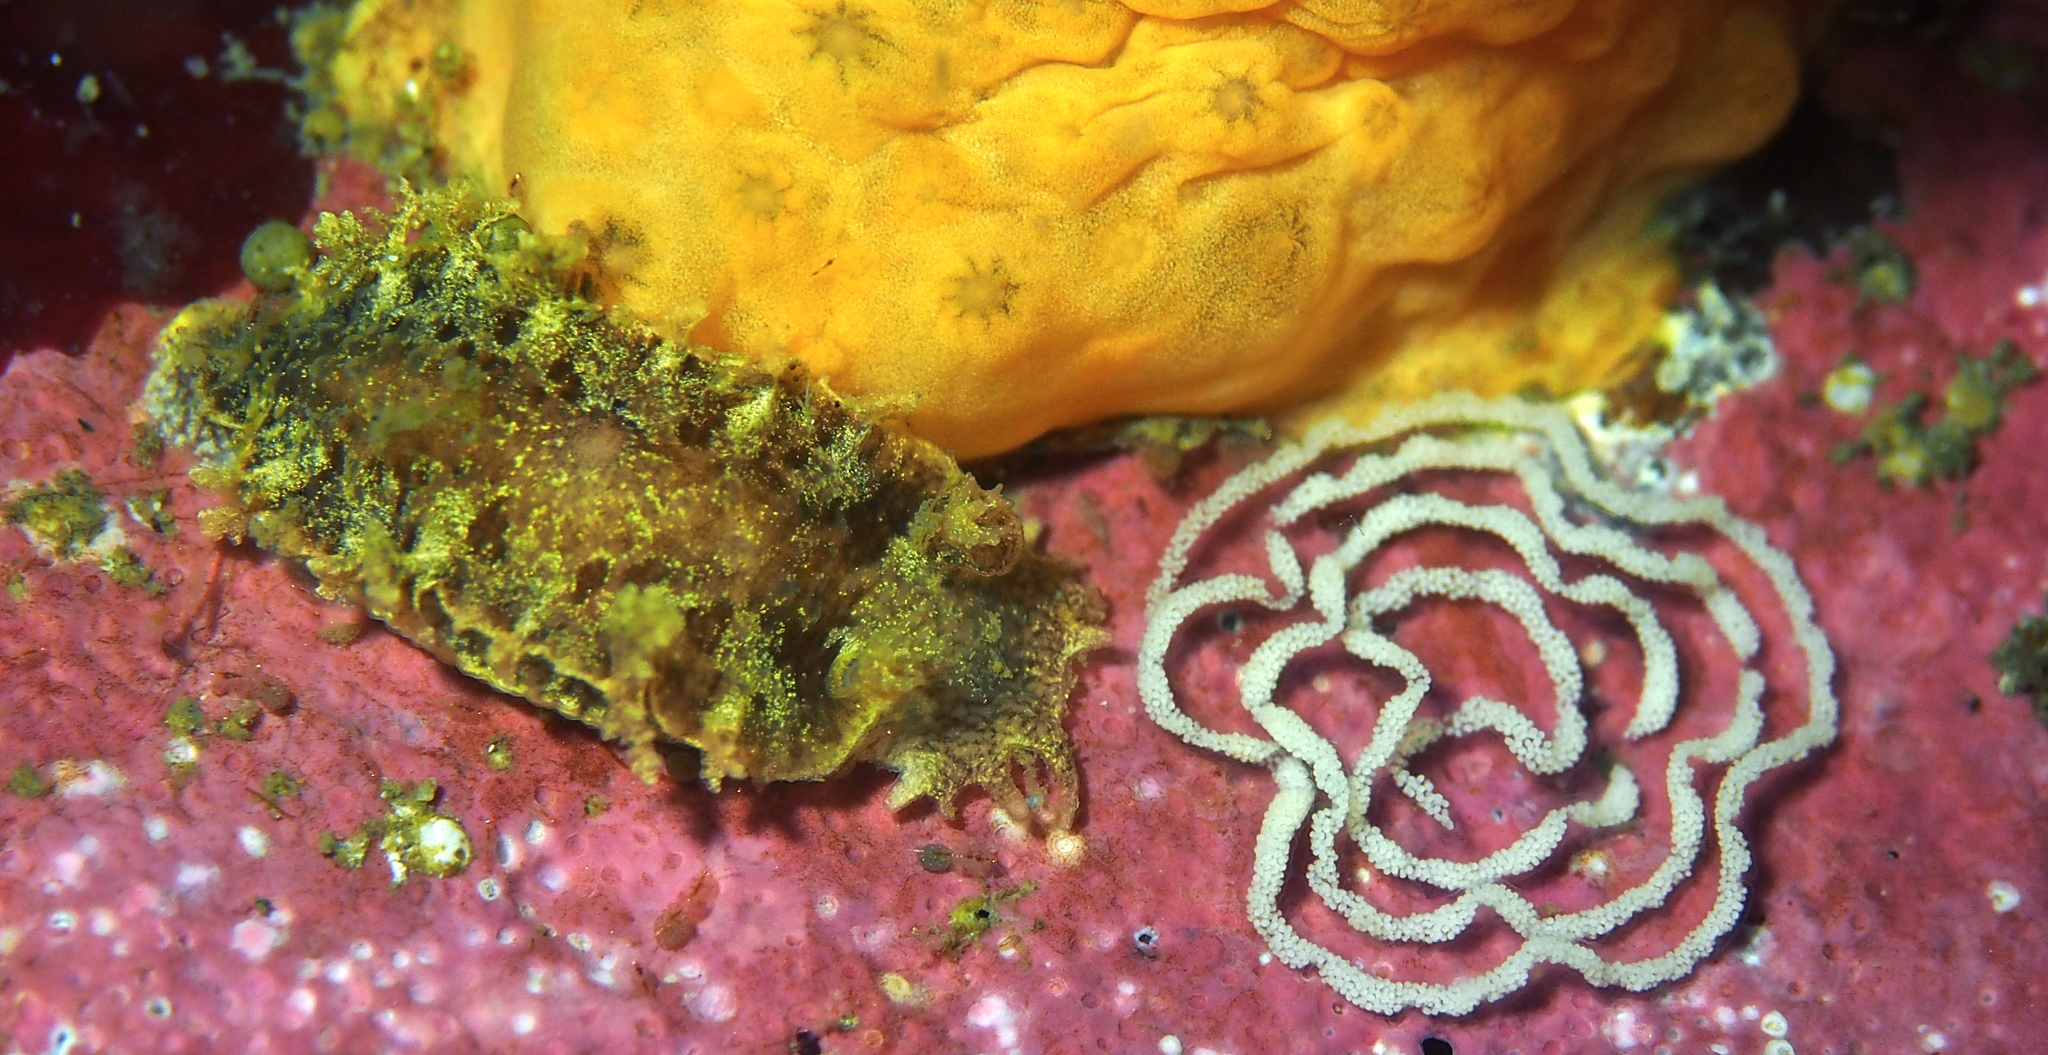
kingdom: Animalia
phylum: Mollusca
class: Gastropoda
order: Nudibranchia
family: Tritoniidae
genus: Duvaucelia
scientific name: Duvaucelia plebeia
